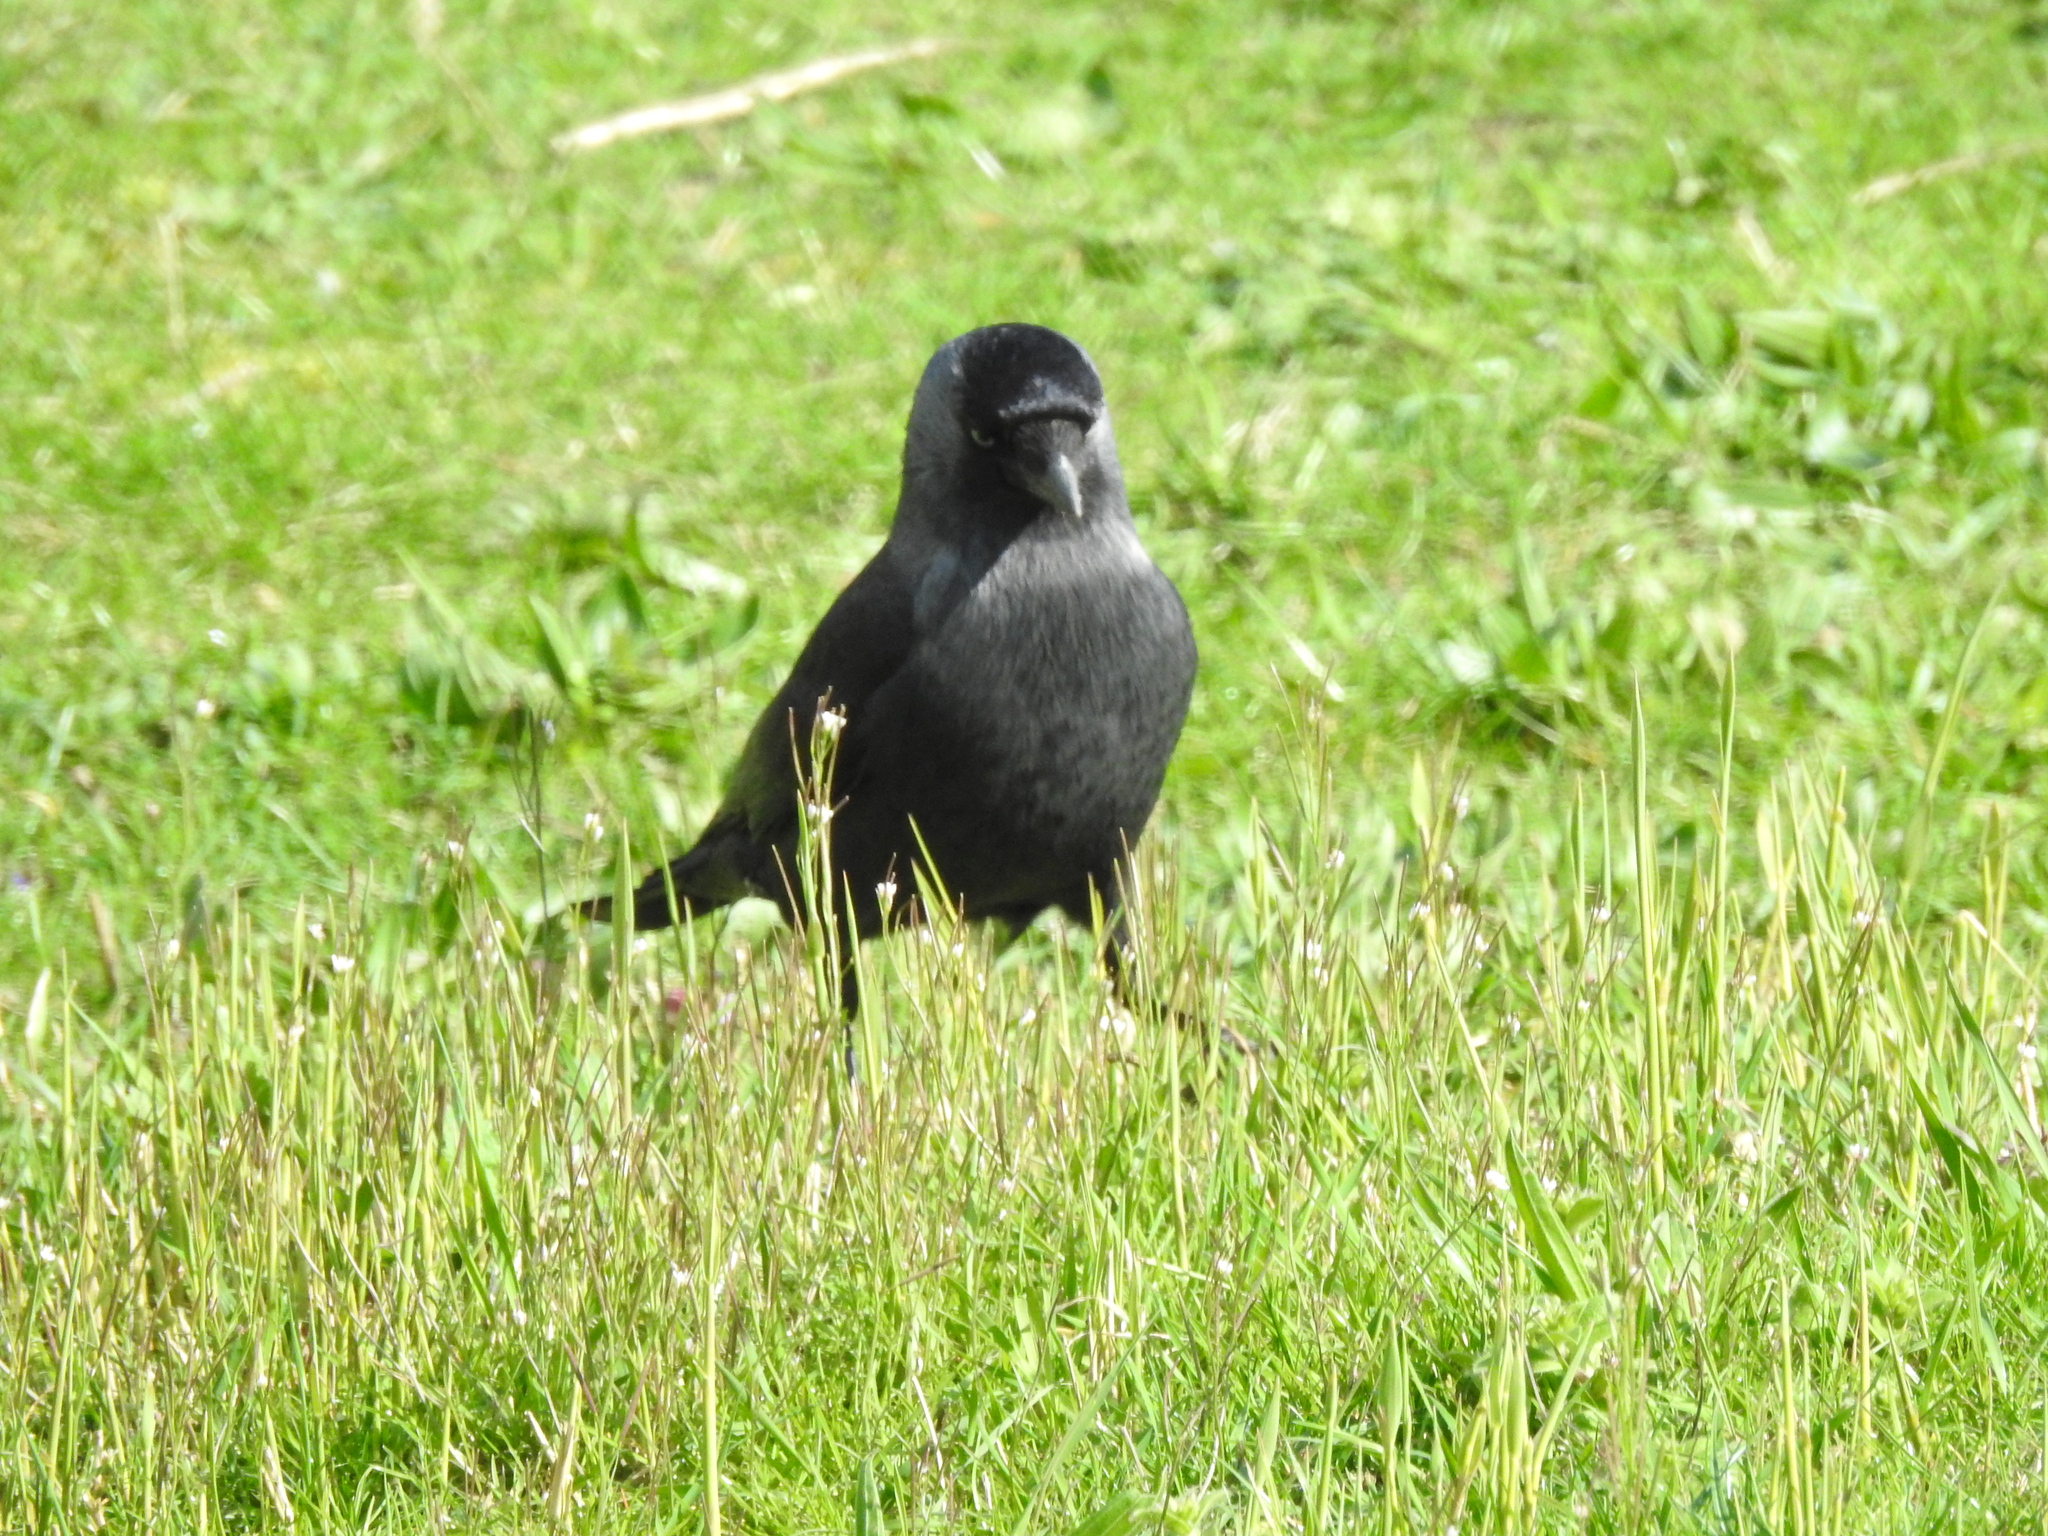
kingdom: Animalia
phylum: Chordata
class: Aves
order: Passeriformes
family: Corvidae
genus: Coloeus
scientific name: Coloeus monedula
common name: Western jackdaw
